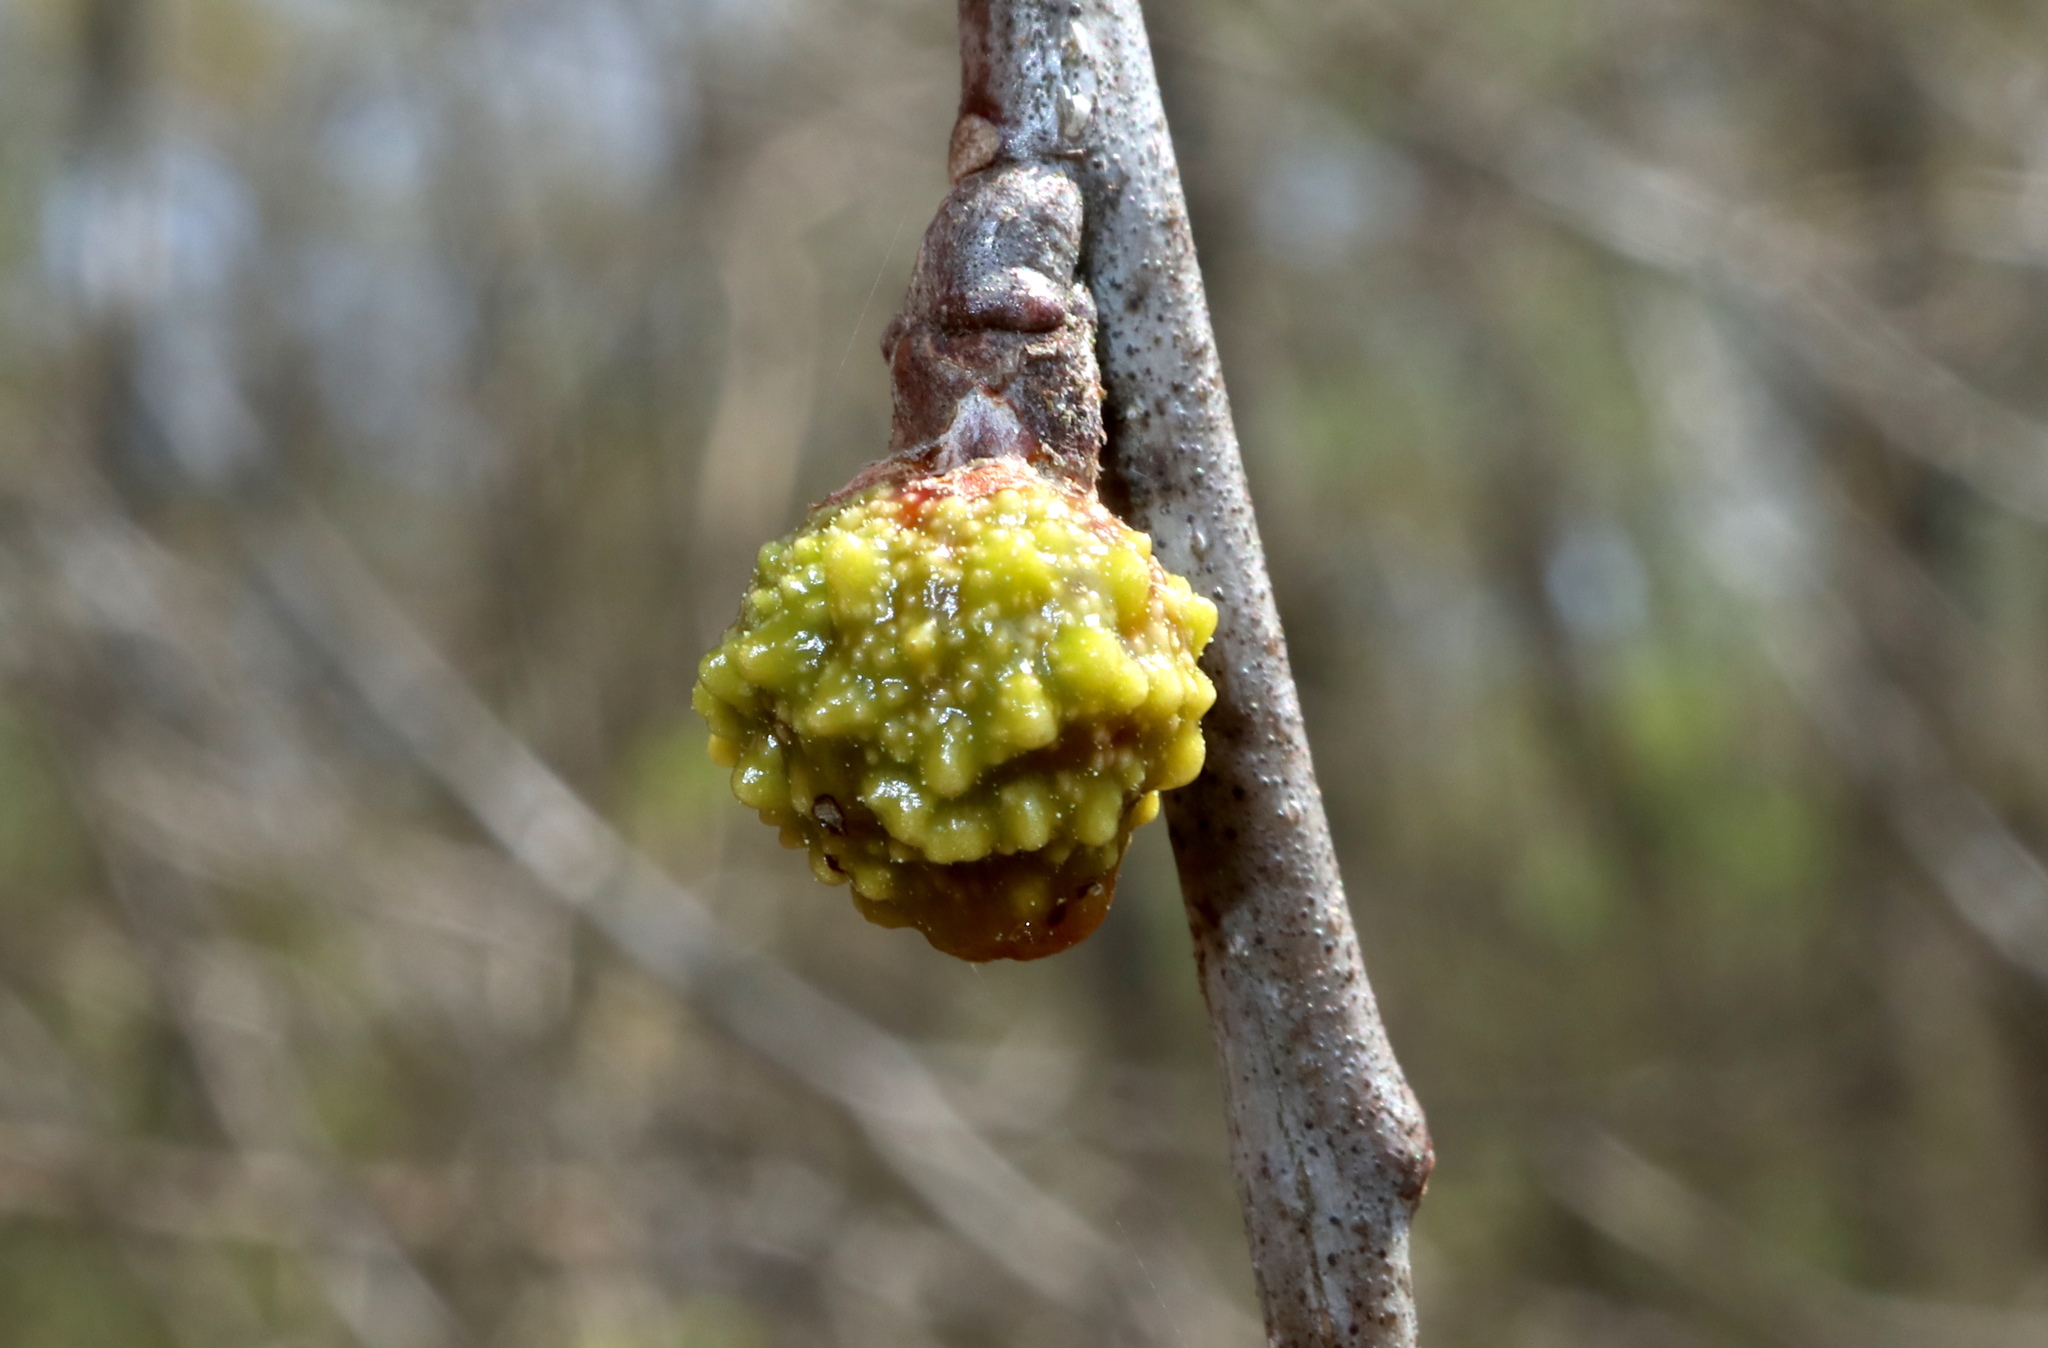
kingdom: Animalia
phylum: Arthropoda
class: Insecta
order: Hymenoptera
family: Cynipidae
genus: Callirhytis
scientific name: Callirhytis
